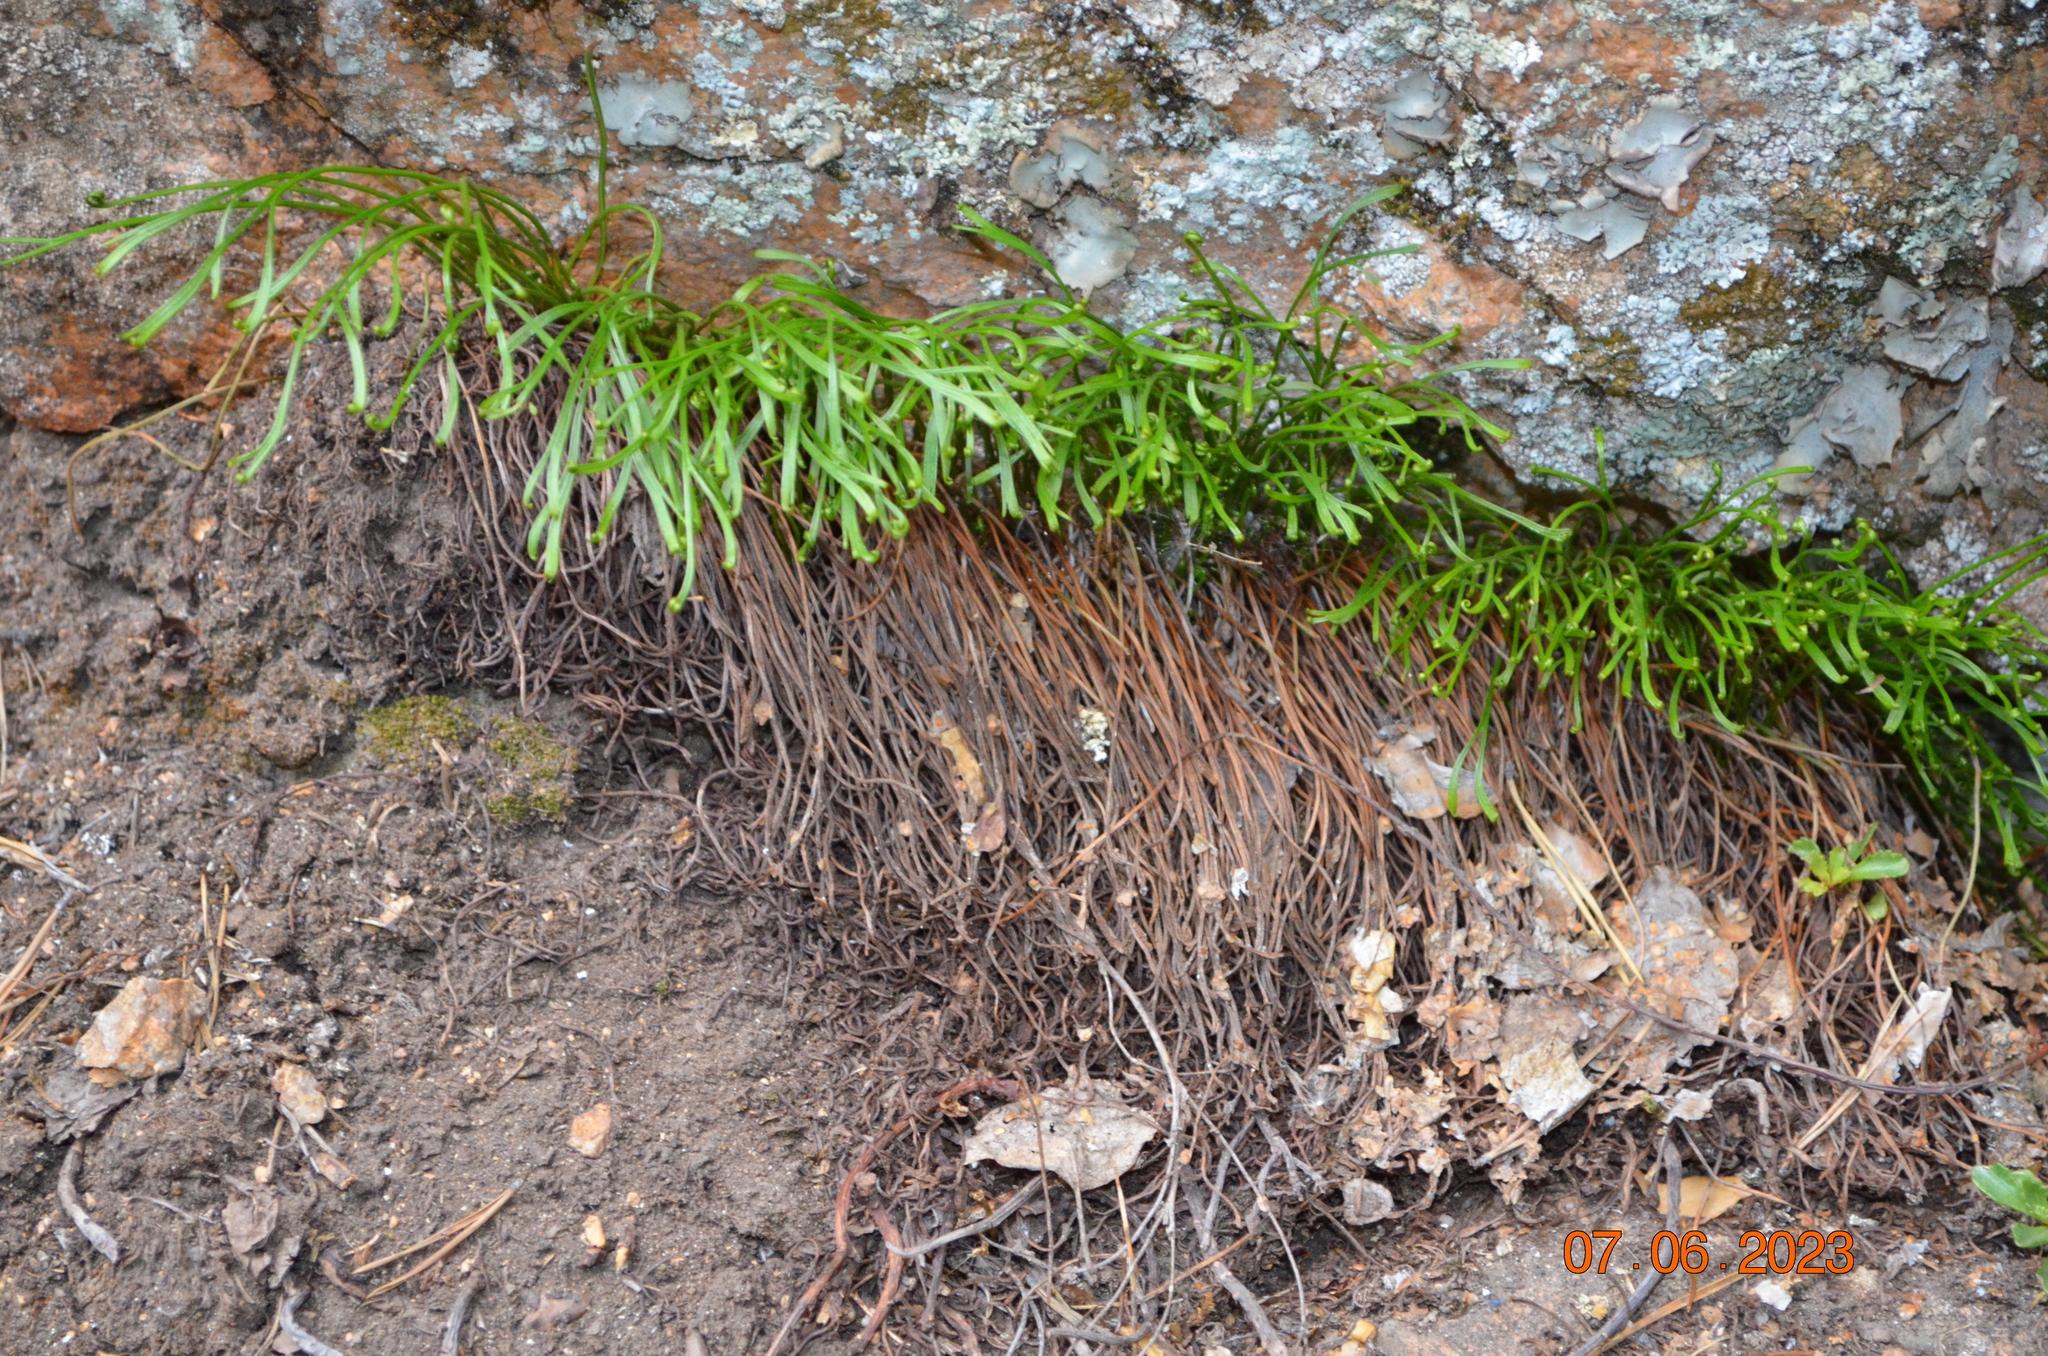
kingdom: Plantae
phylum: Tracheophyta
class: Polypodiopsida
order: Polypodiales
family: Aspleniaceae
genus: Asplenium
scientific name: Asplenium septentrionale
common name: Forked spleenwort
